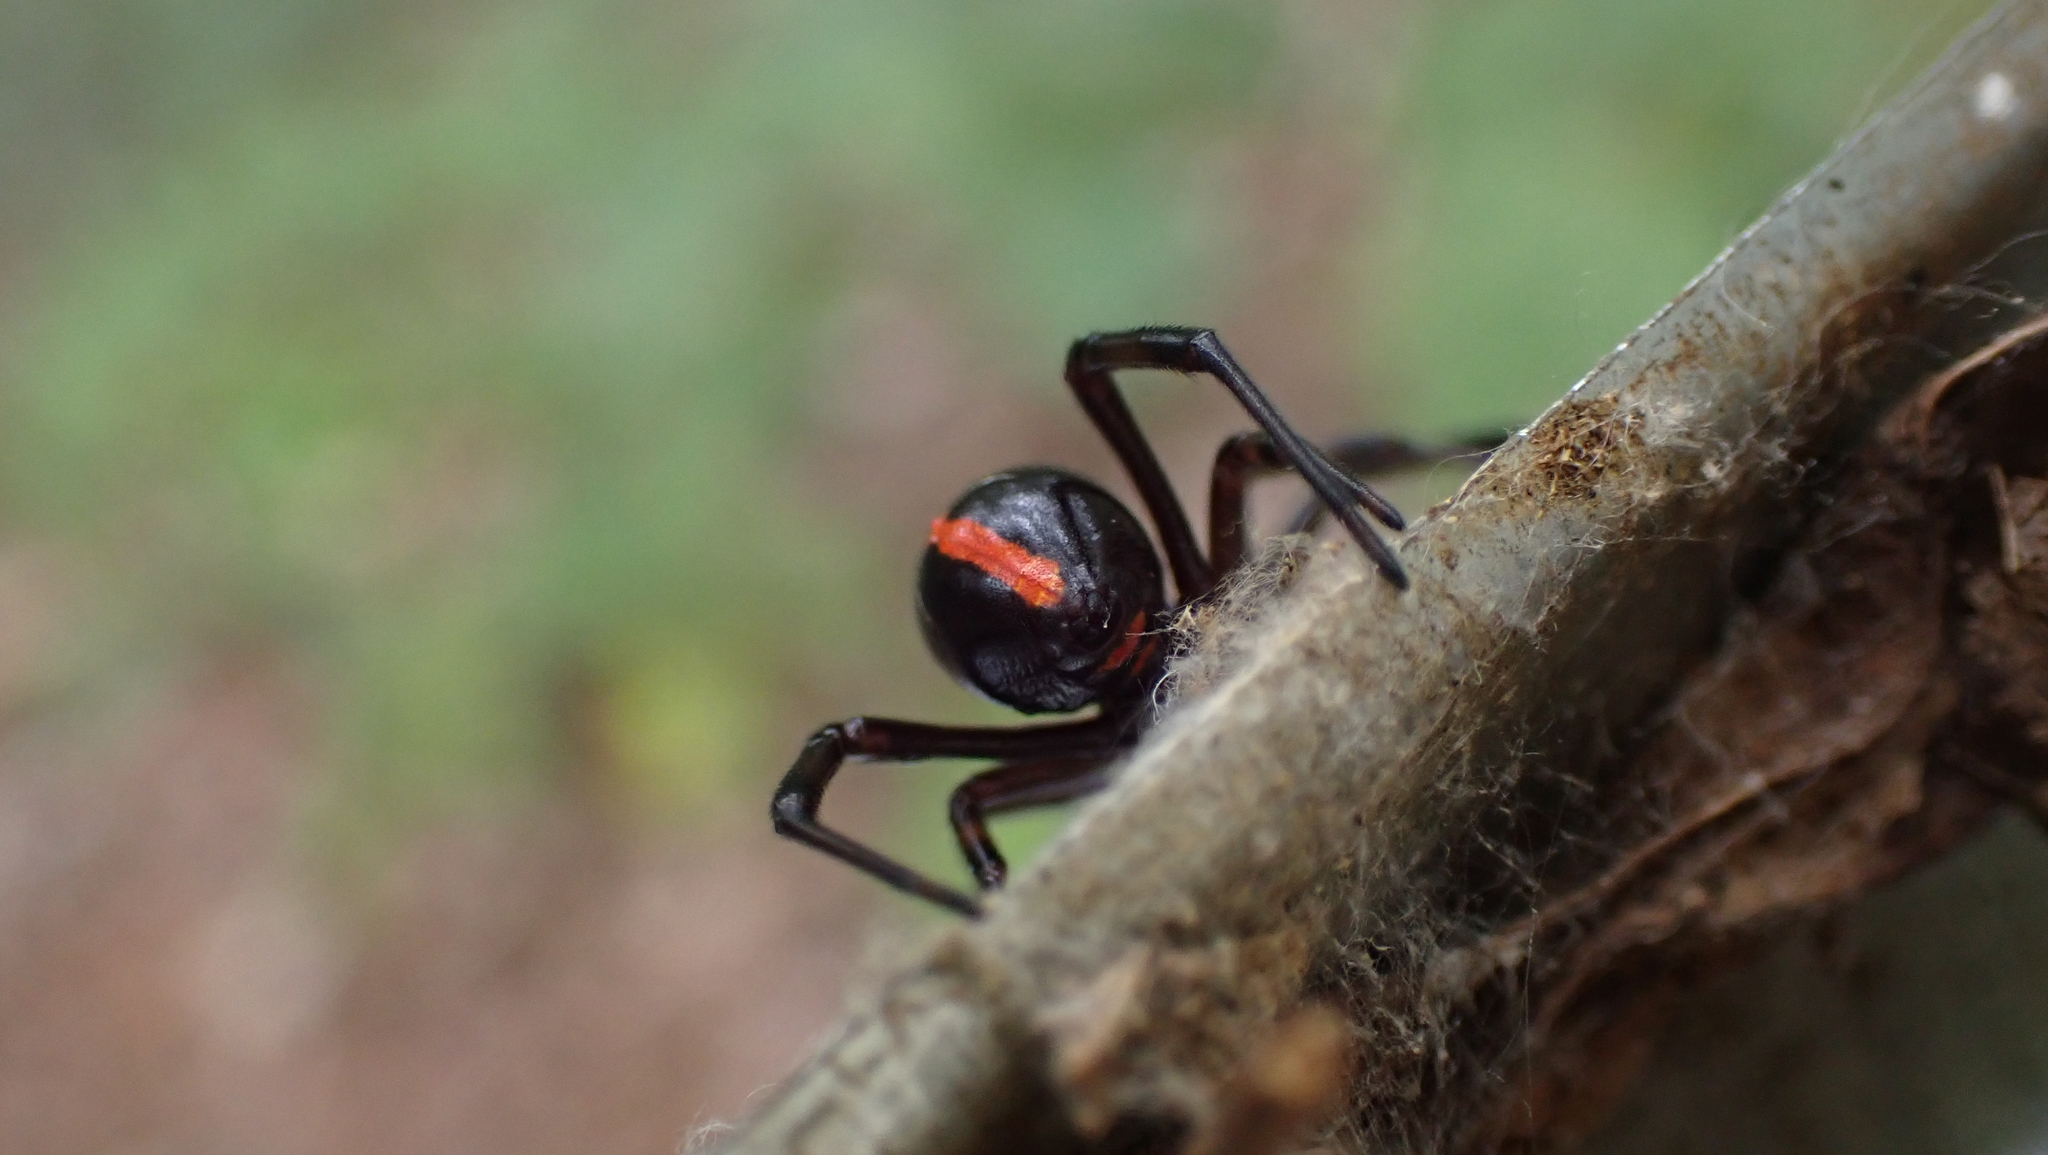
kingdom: Animalia
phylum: Arthropoda
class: Arachnida
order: Araneae
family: Theridiidae
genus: Latrodectus
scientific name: Latrodectus variolus
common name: Northern black widow
